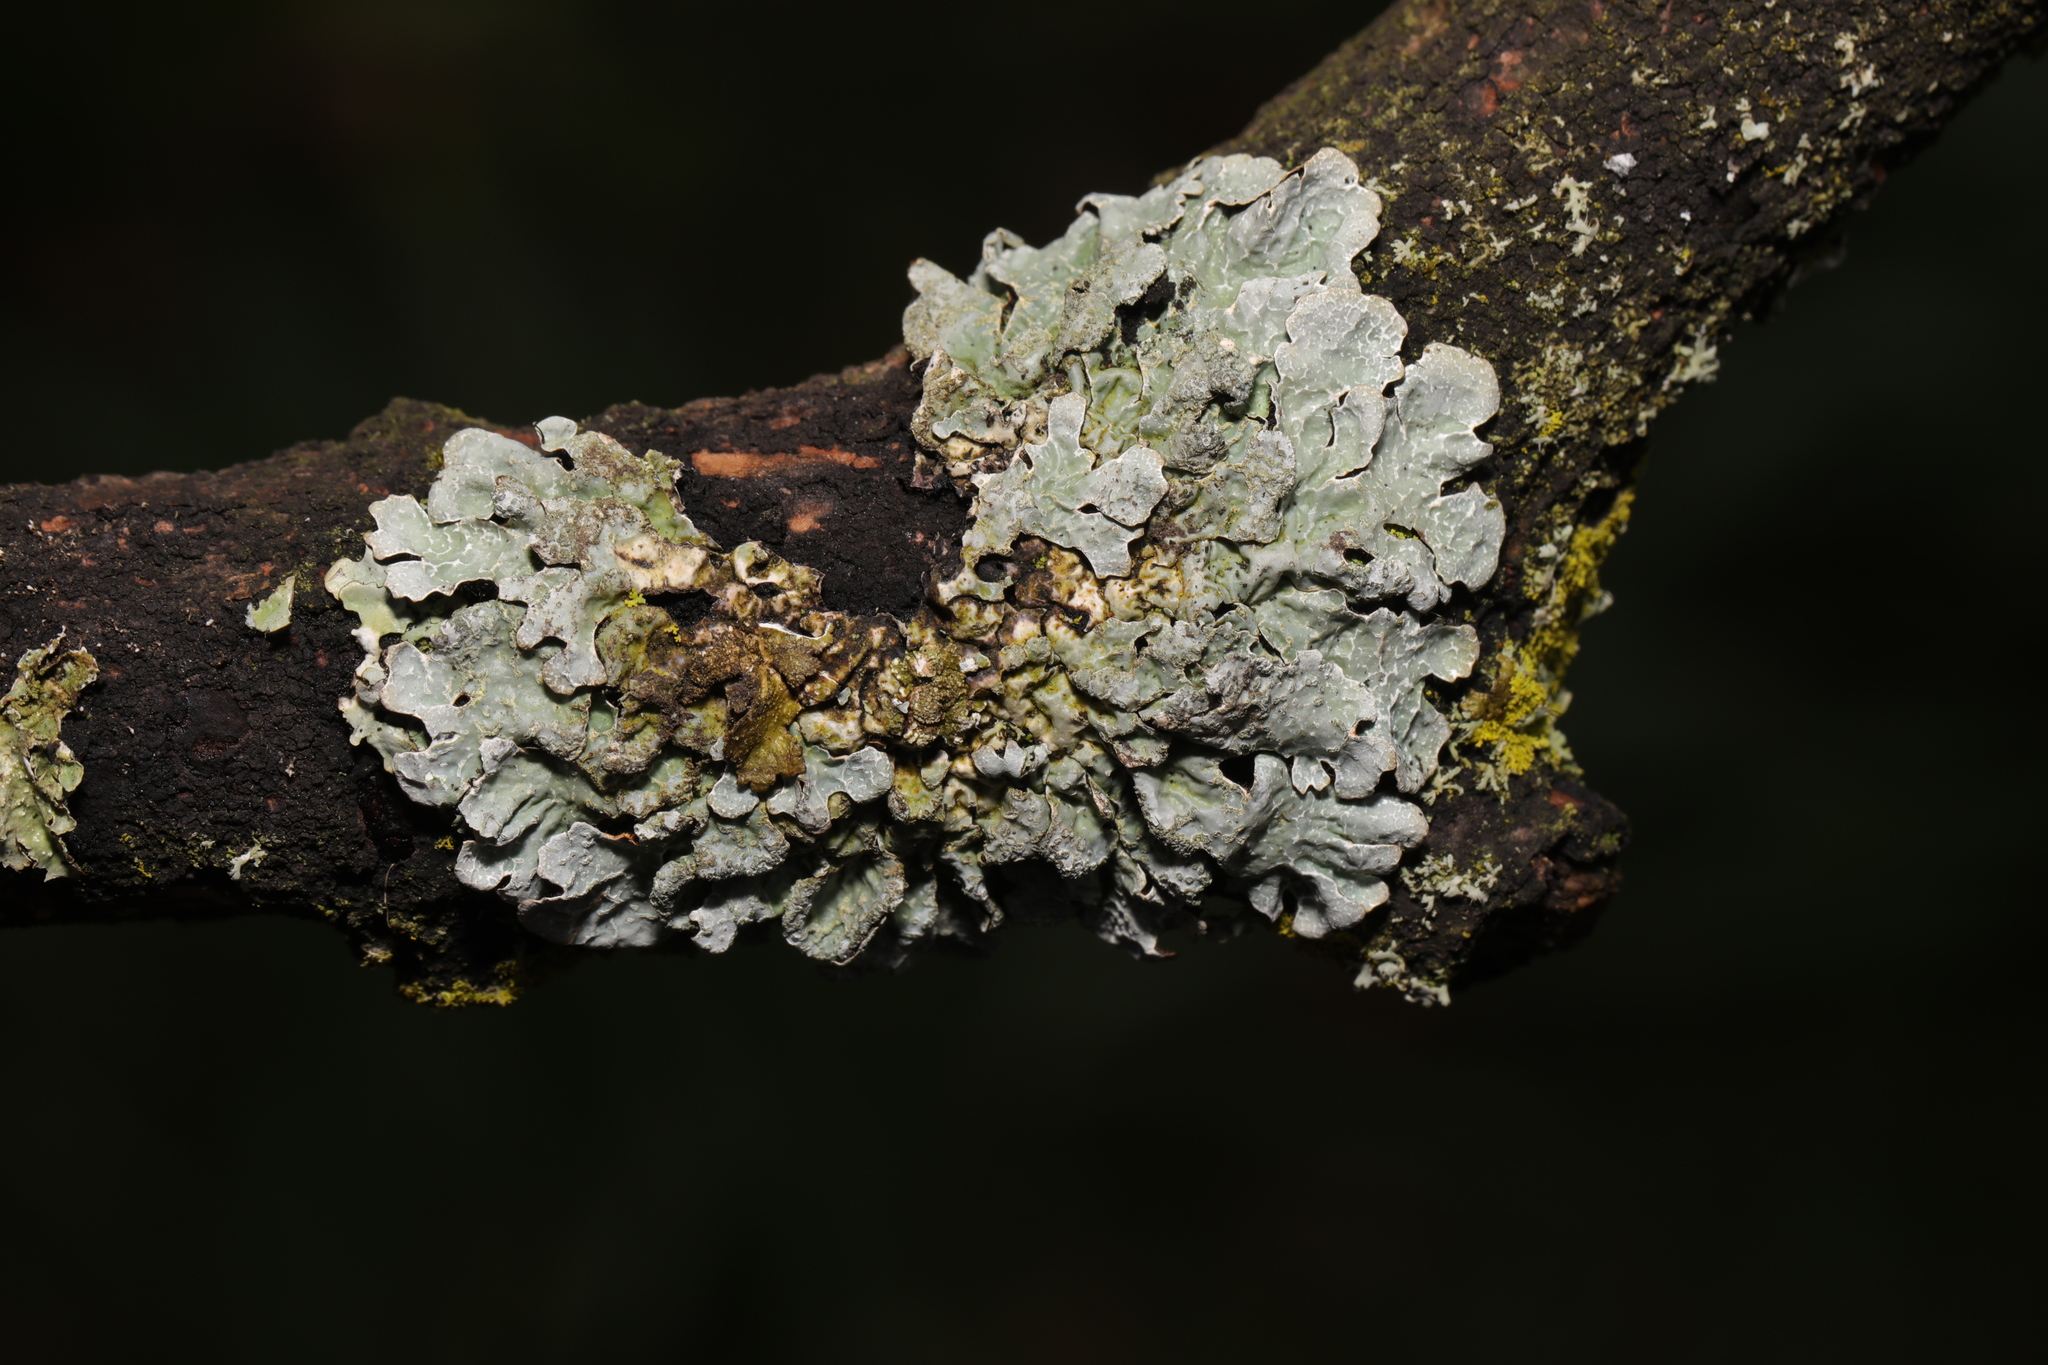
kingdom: Fungi
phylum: Ascomycota
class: Lecanoromycetes
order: Lecanorales
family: Parmeliaceae
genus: Parmelia
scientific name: Parmelia sulcata
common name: Netted shield lichen
